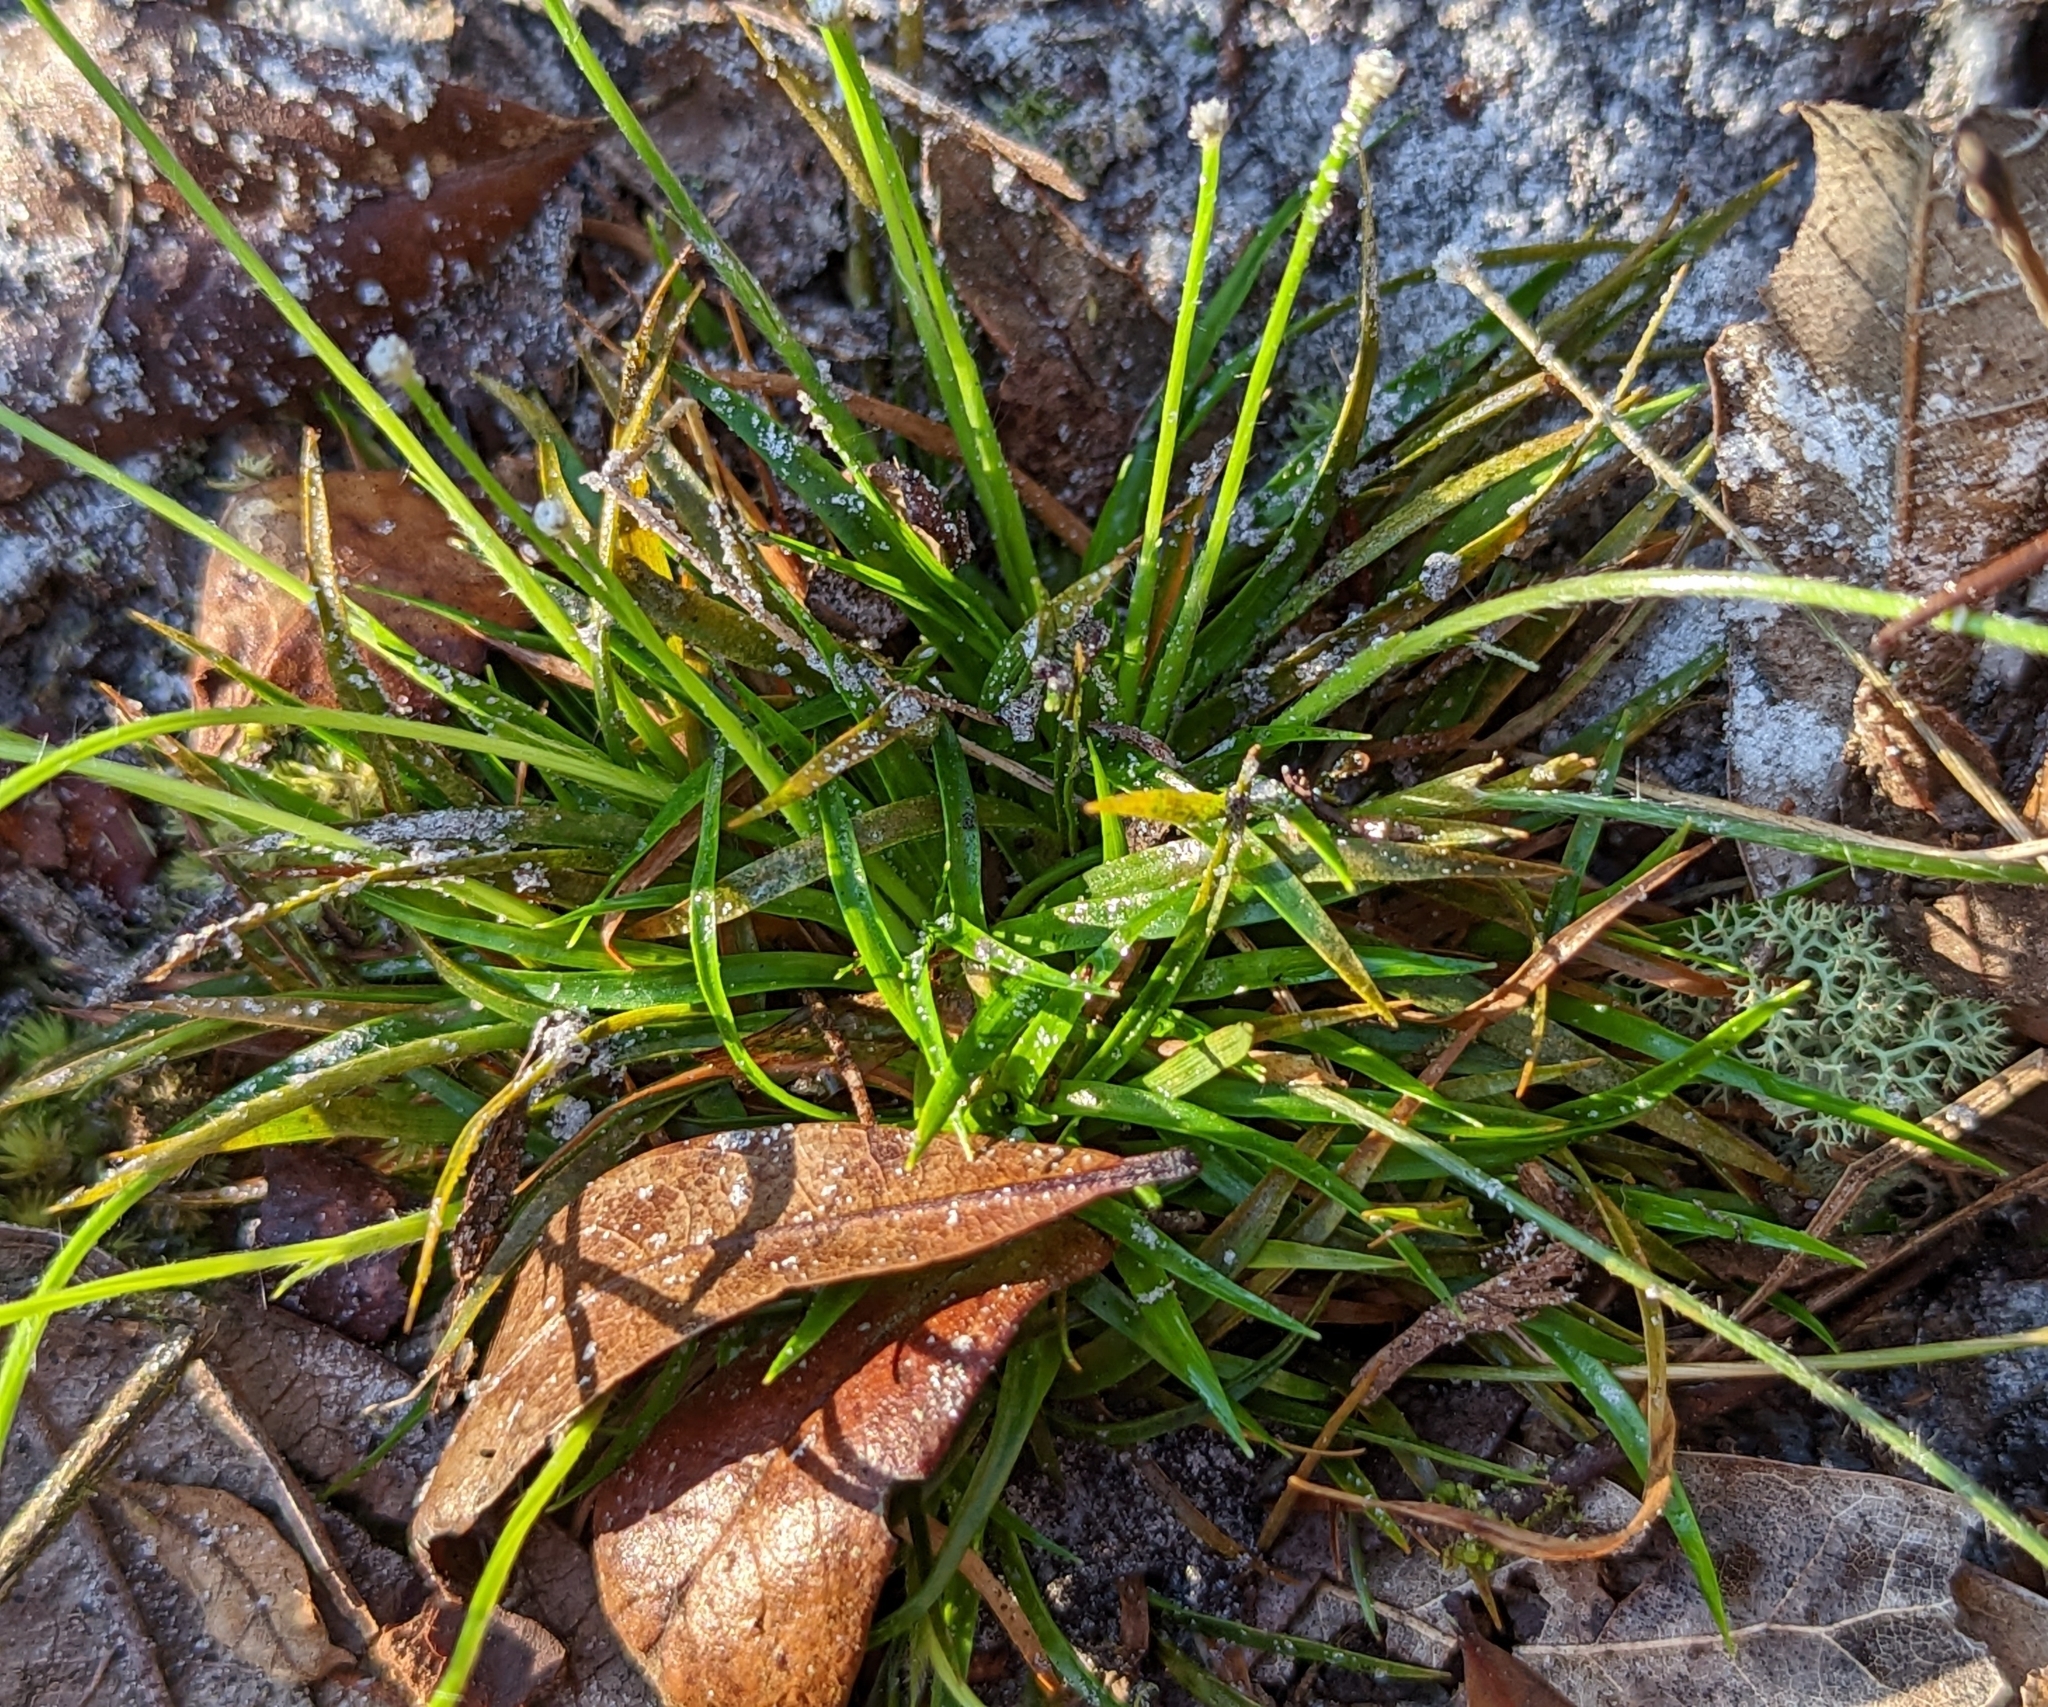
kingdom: Plantae
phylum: Tracheophyta
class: Liliopsida
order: Poales
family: Eriocaulaceae
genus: Paepalanthus
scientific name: Paepalanthus beyrichianus
